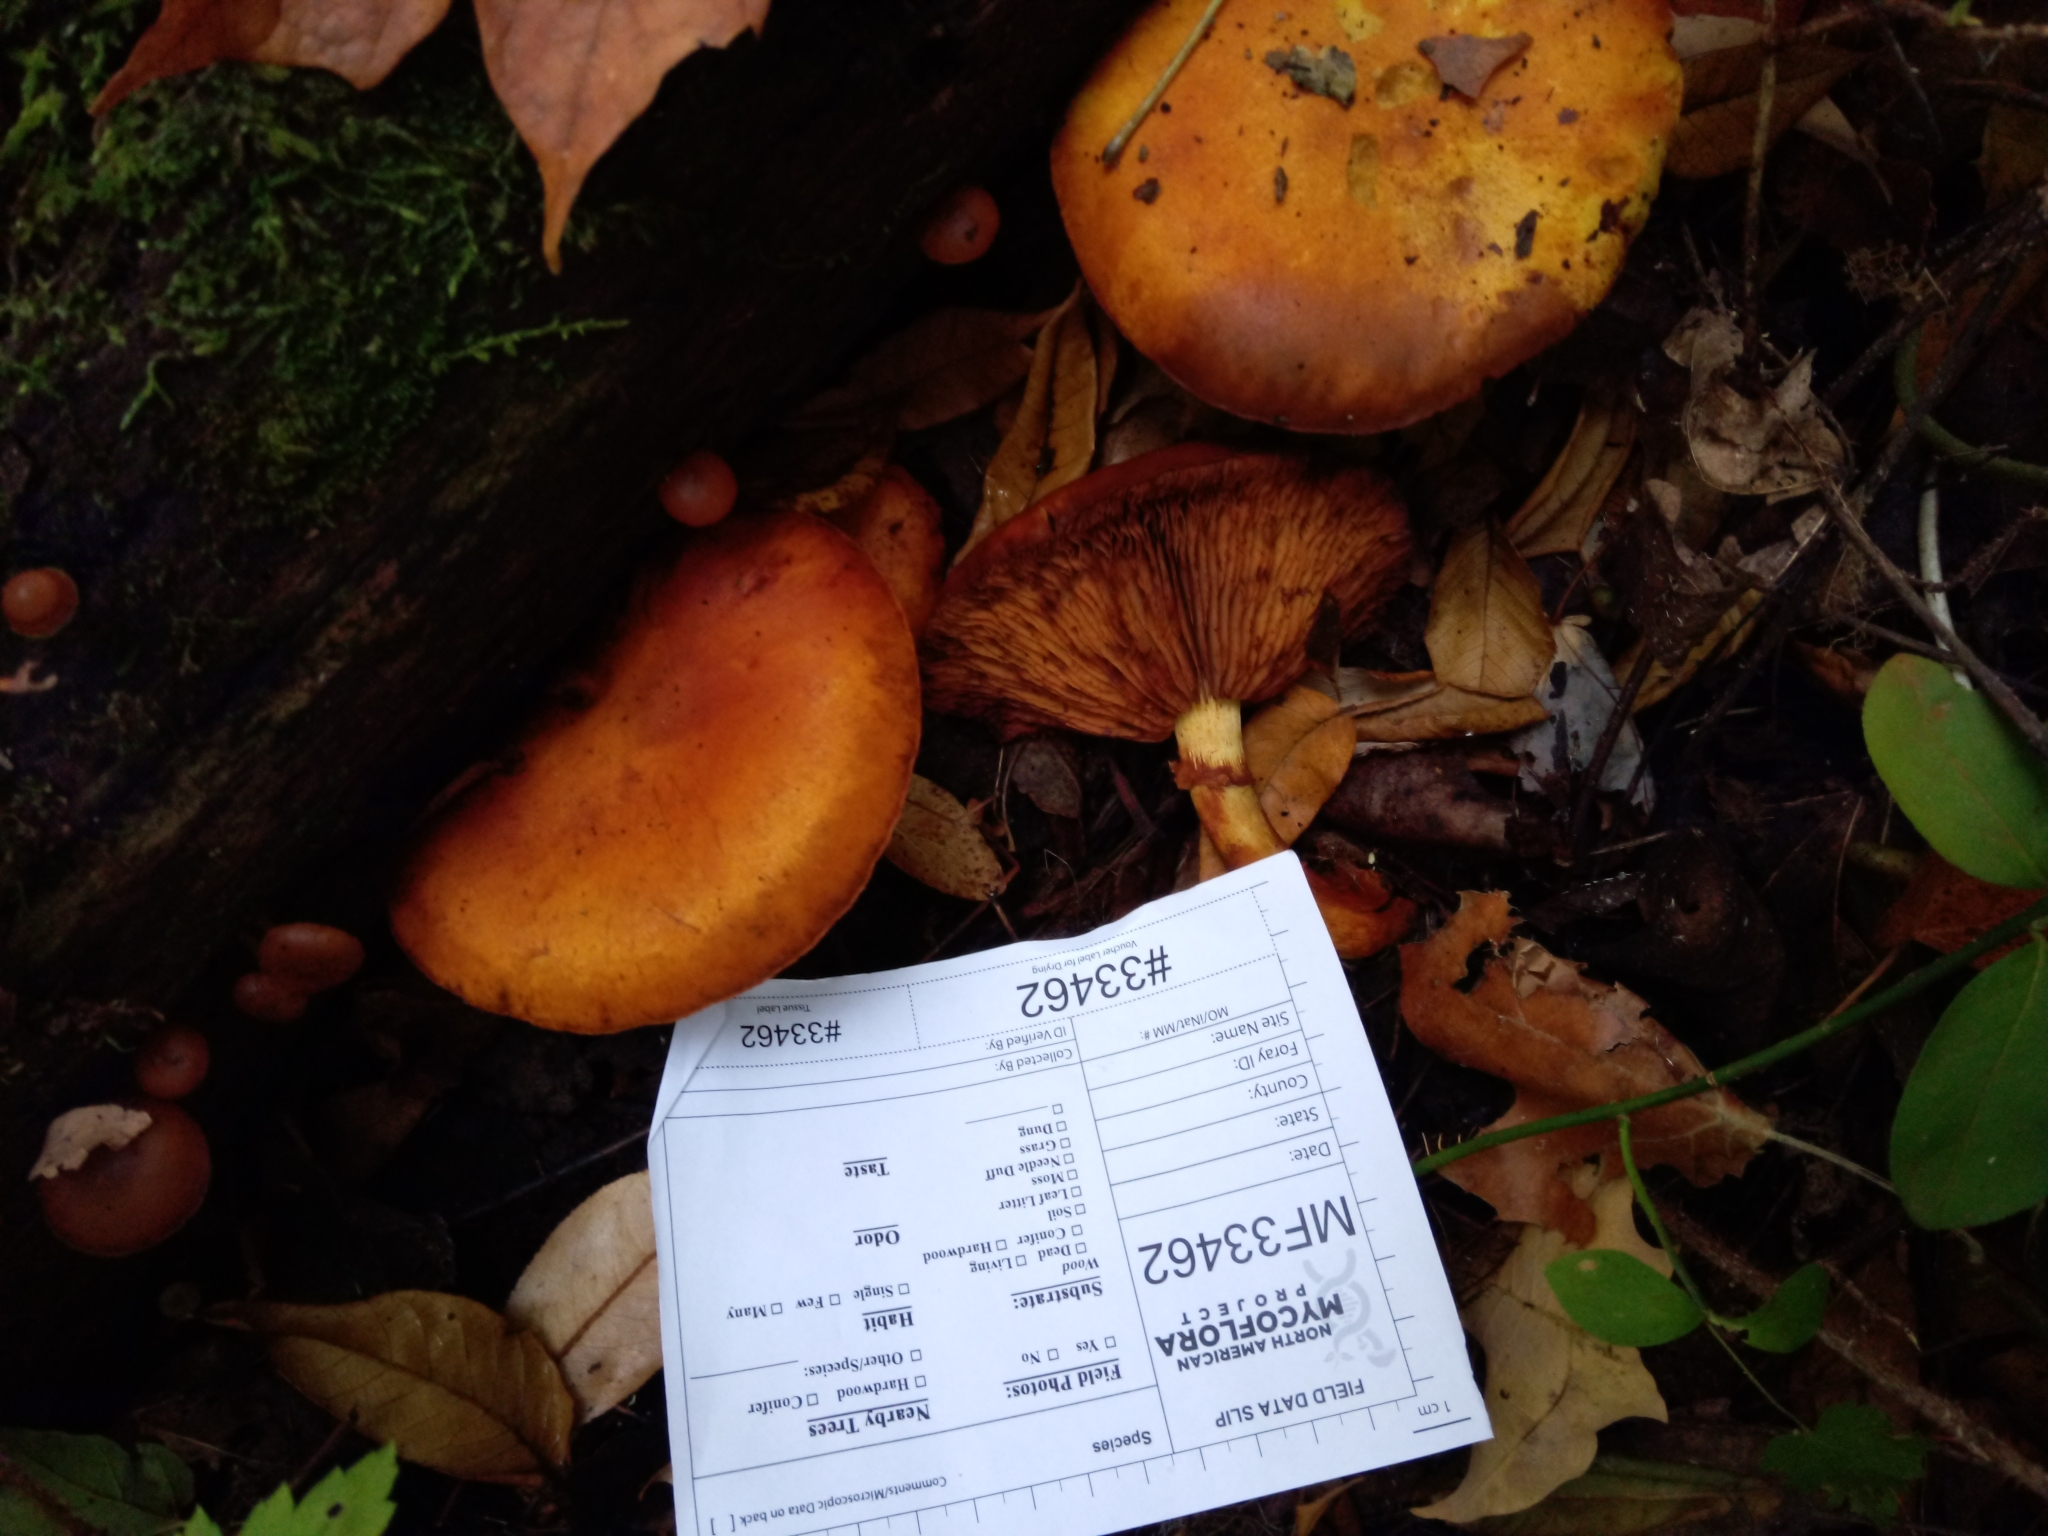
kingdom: Fungi
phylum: Basidiomycota
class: Agaricomycetes
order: Agaricales
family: Hymenogastraceae
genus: Gymnopilus
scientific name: Gymnopilus luteus
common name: Yellow gymnopilus
